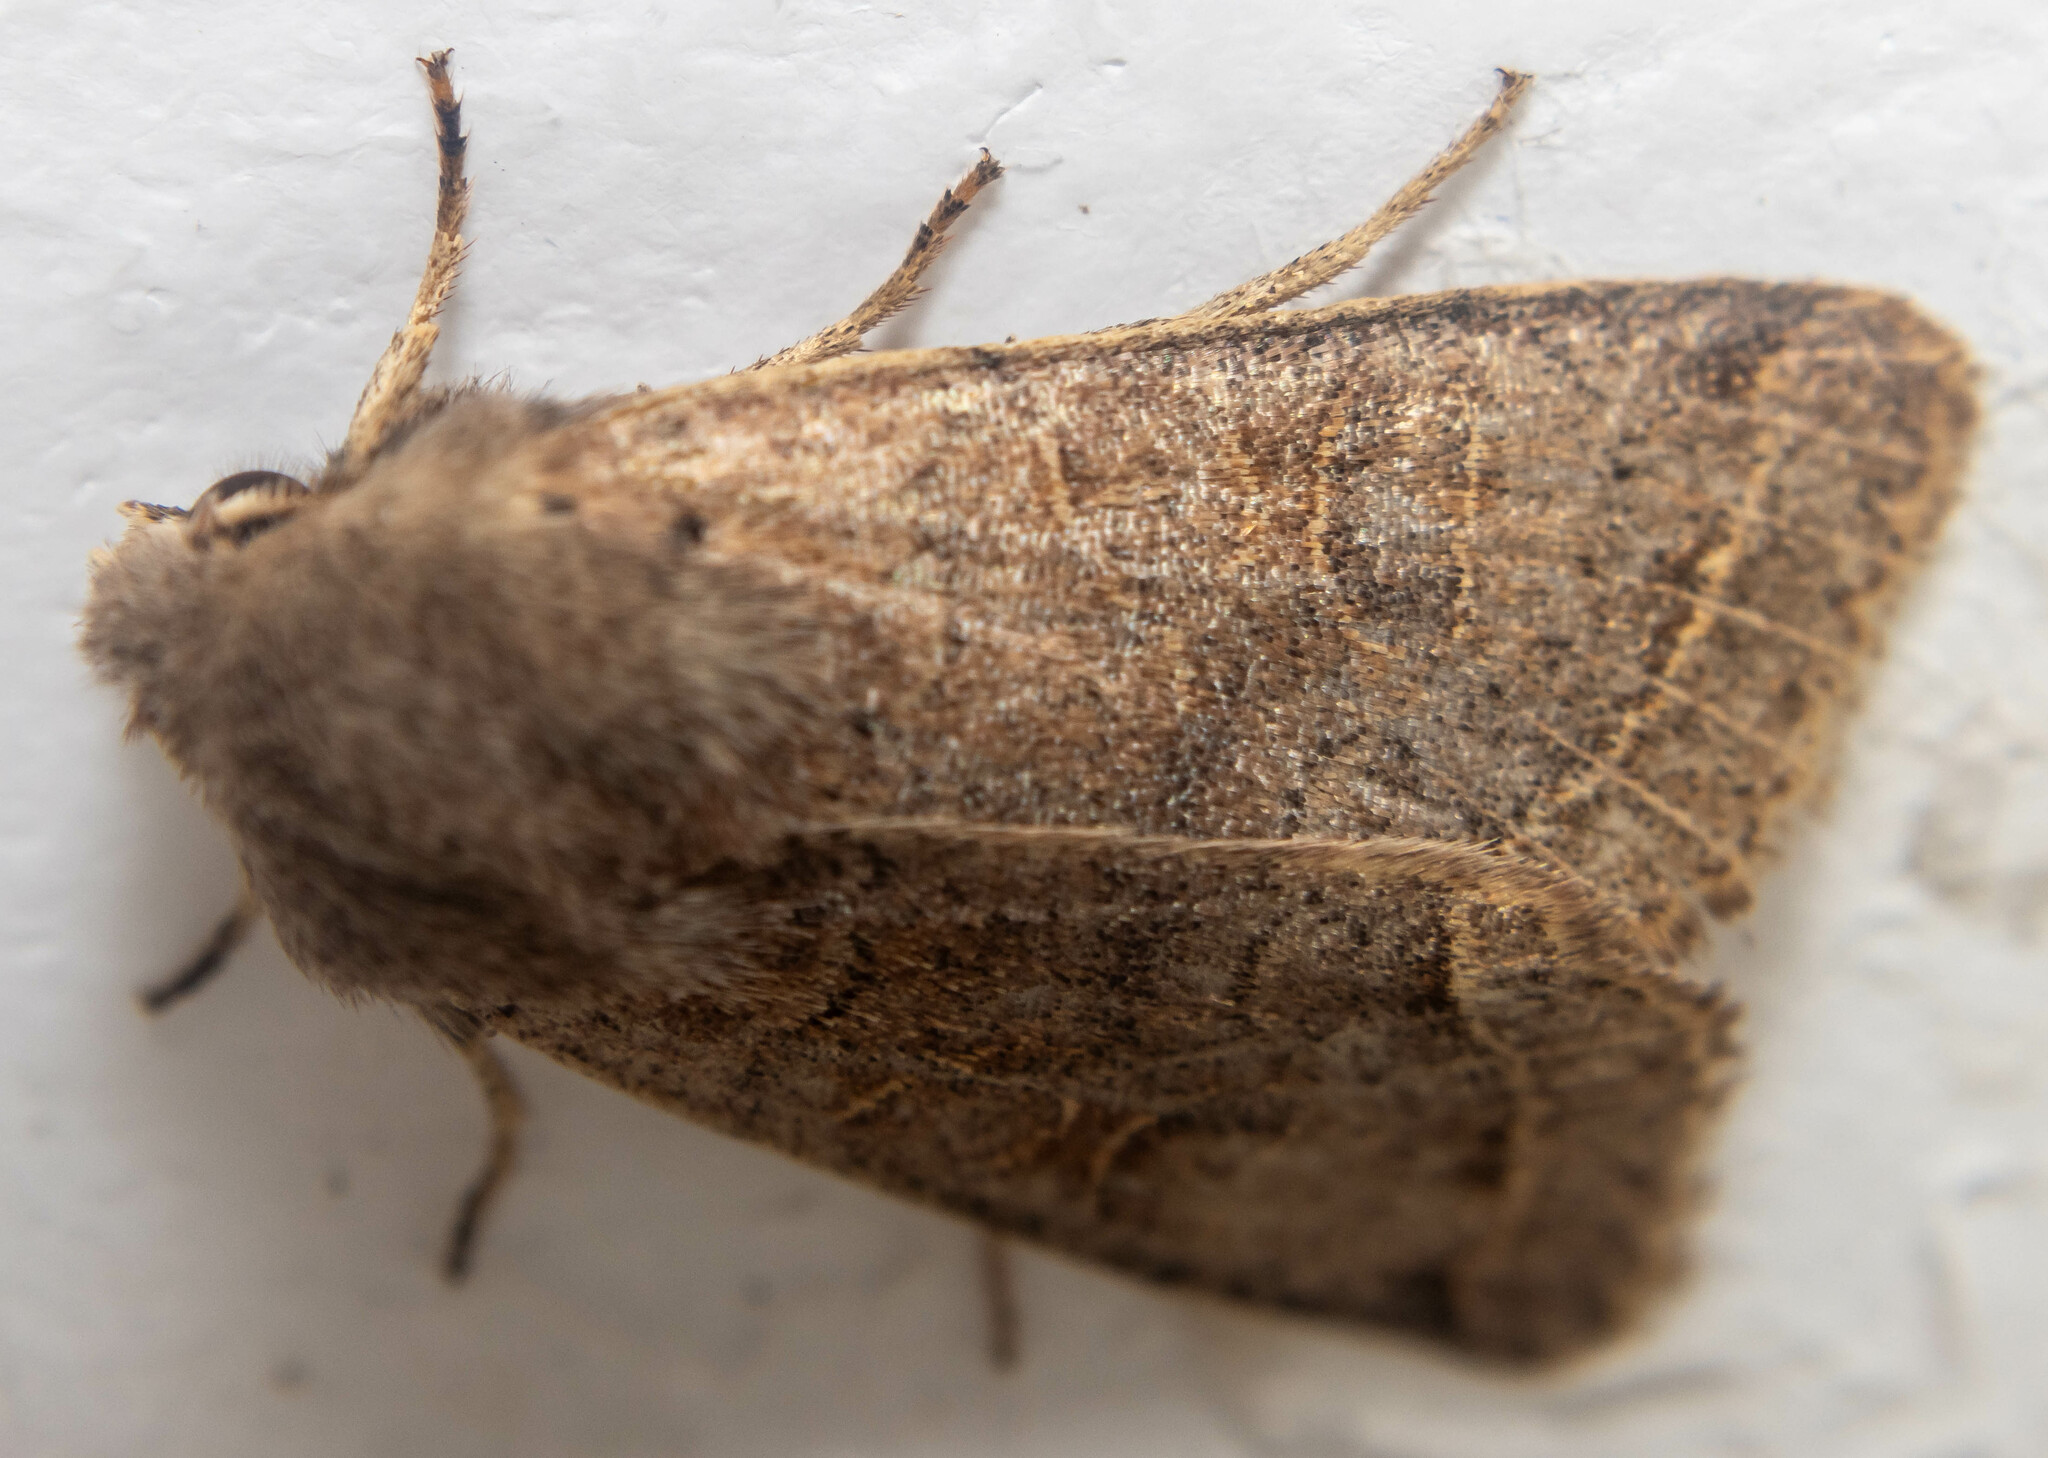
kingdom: Animalia
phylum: Arthropoda
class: Insecta
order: Lepidoptera
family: Noctuidae
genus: Orthosia
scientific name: Orthosia cerasi
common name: Common quaker
